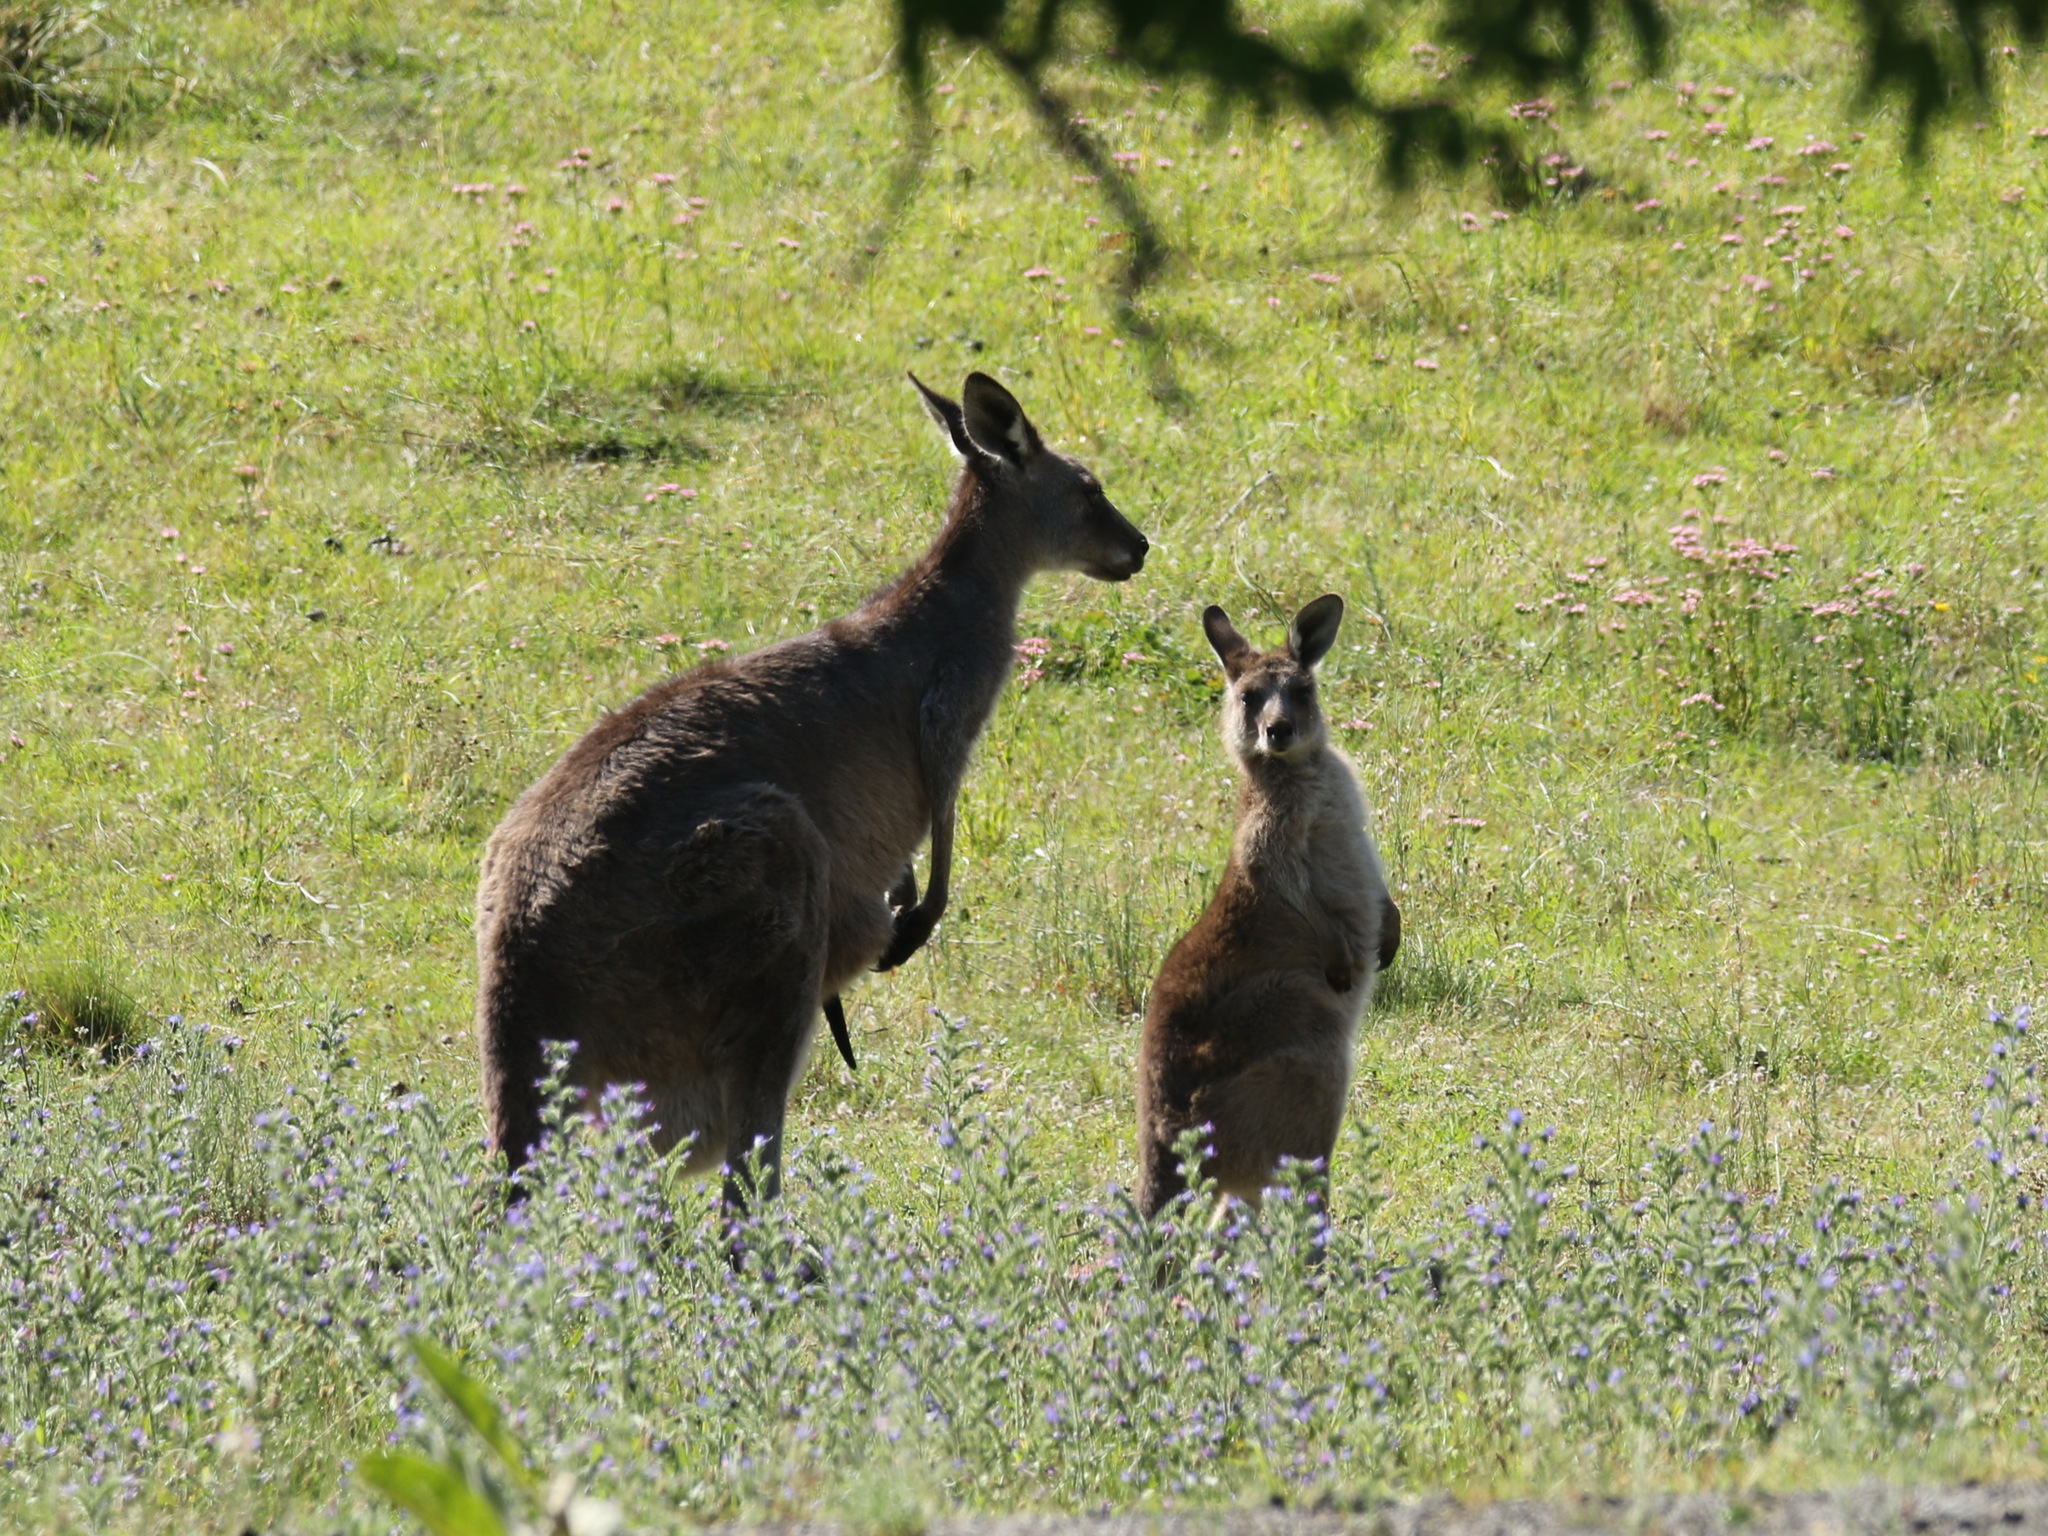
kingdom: Animalia
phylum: Chordata
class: Mammalia
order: Diprotodontia
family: Macropodidae
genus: Macropus
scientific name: Macropus giganteus
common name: Eastern grey kangaroo
